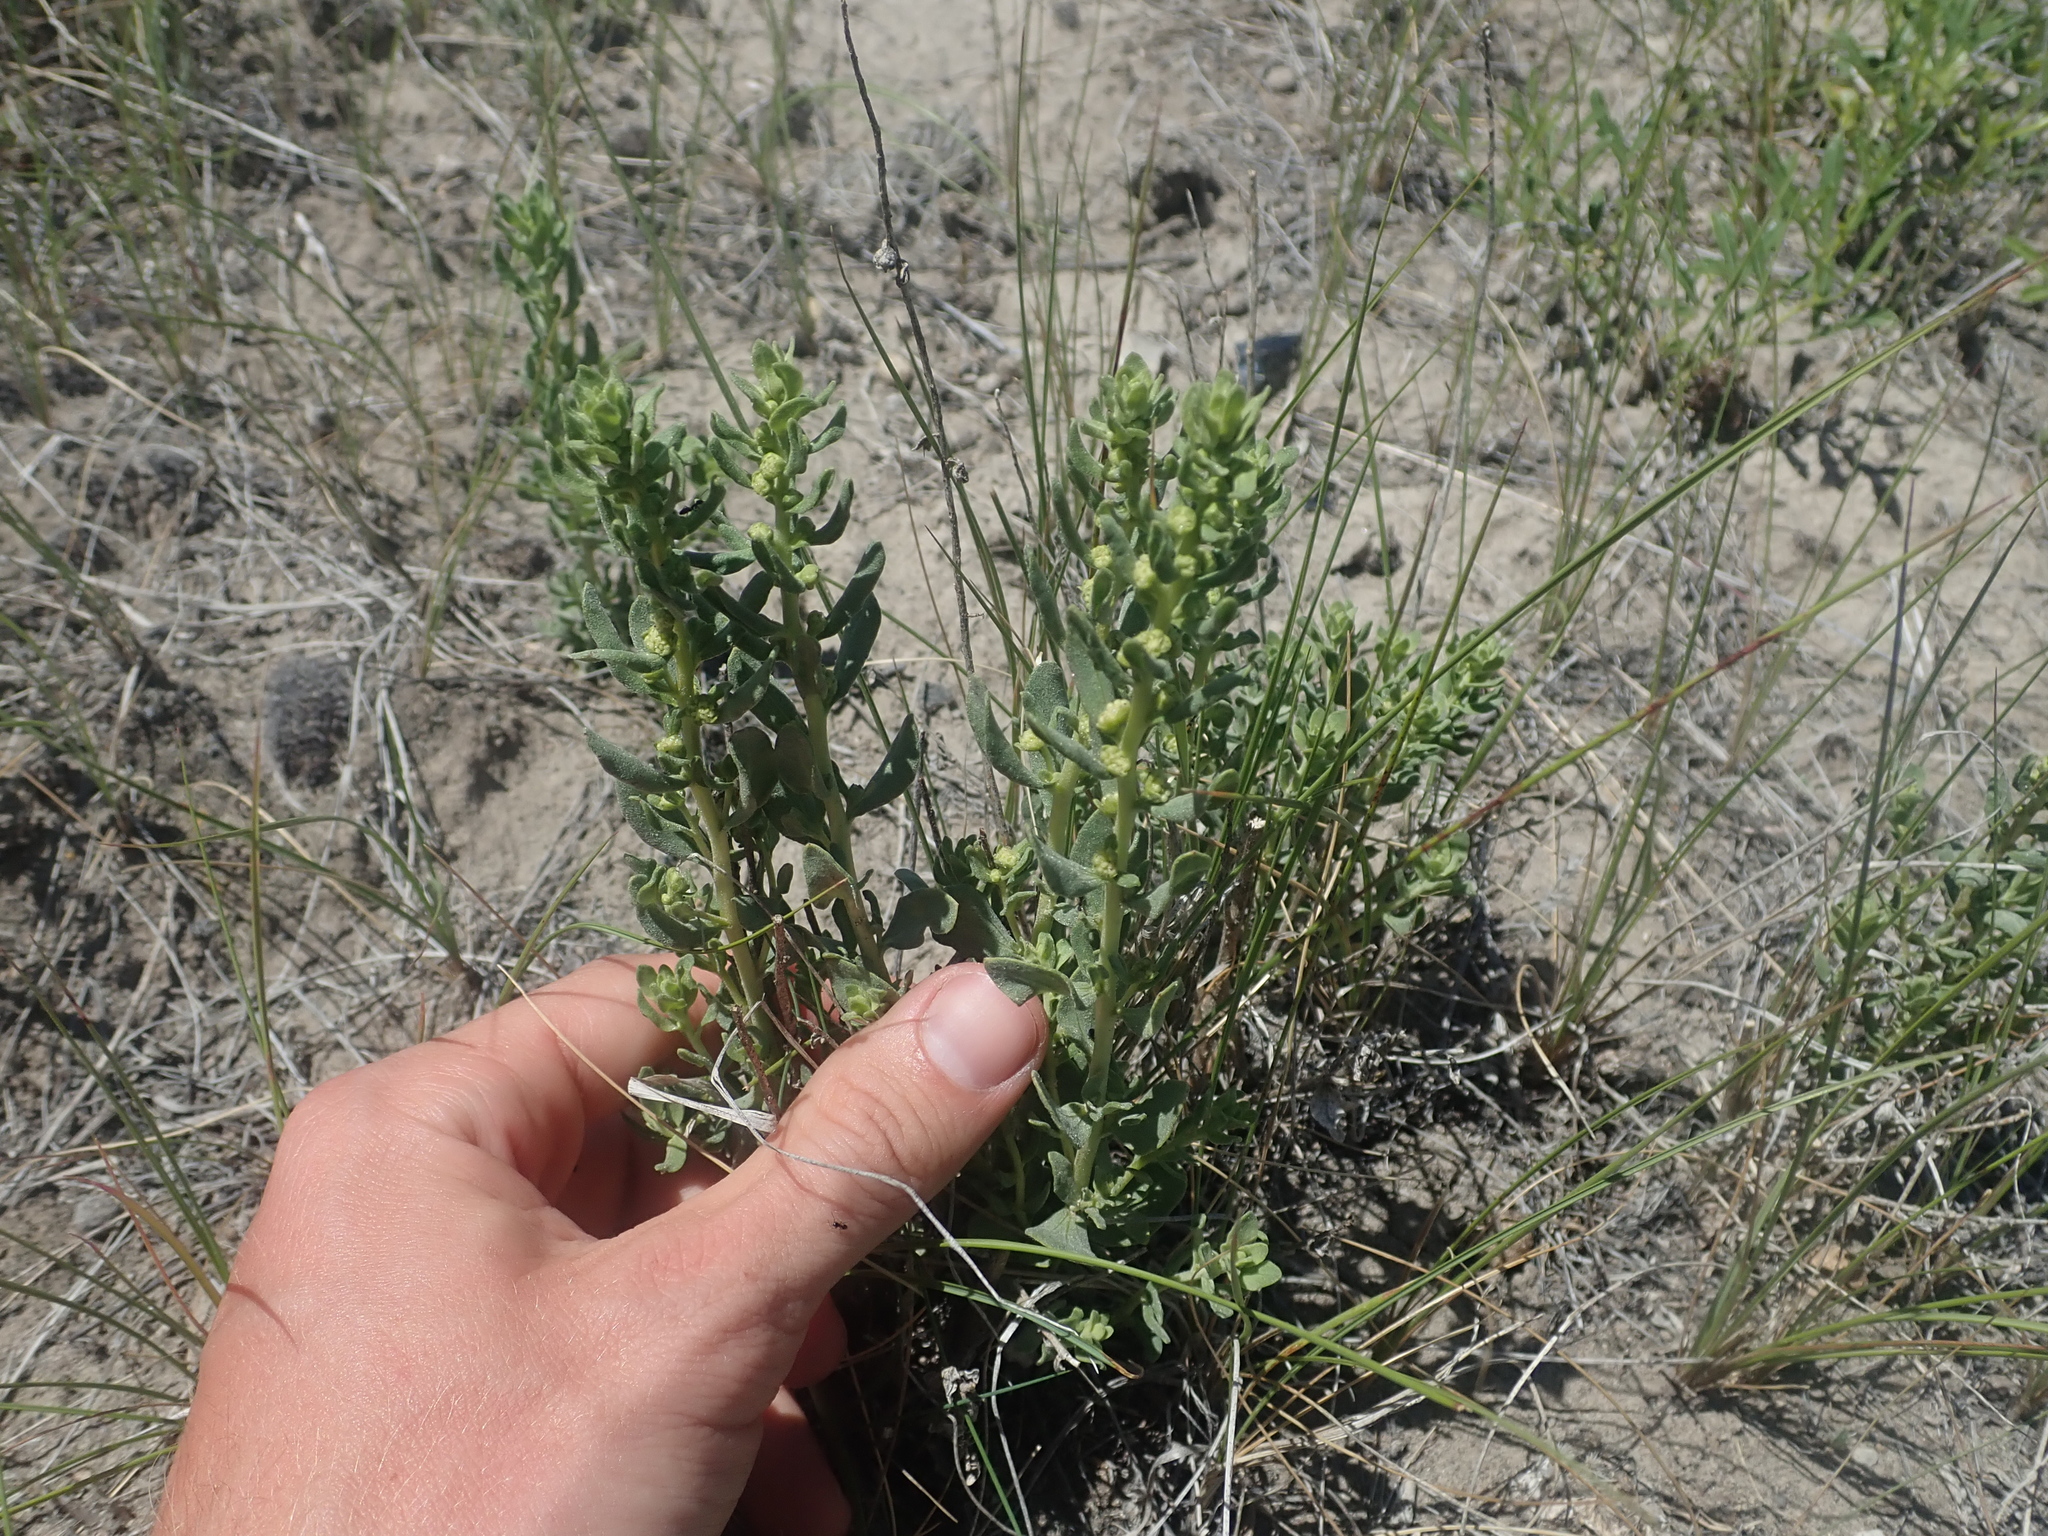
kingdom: Plantae
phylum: Tracheophyta
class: Magnoliopsida
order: Asterales
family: Asteraceae
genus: Iva
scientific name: Iva axillaris
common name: Poverty sumpweed
